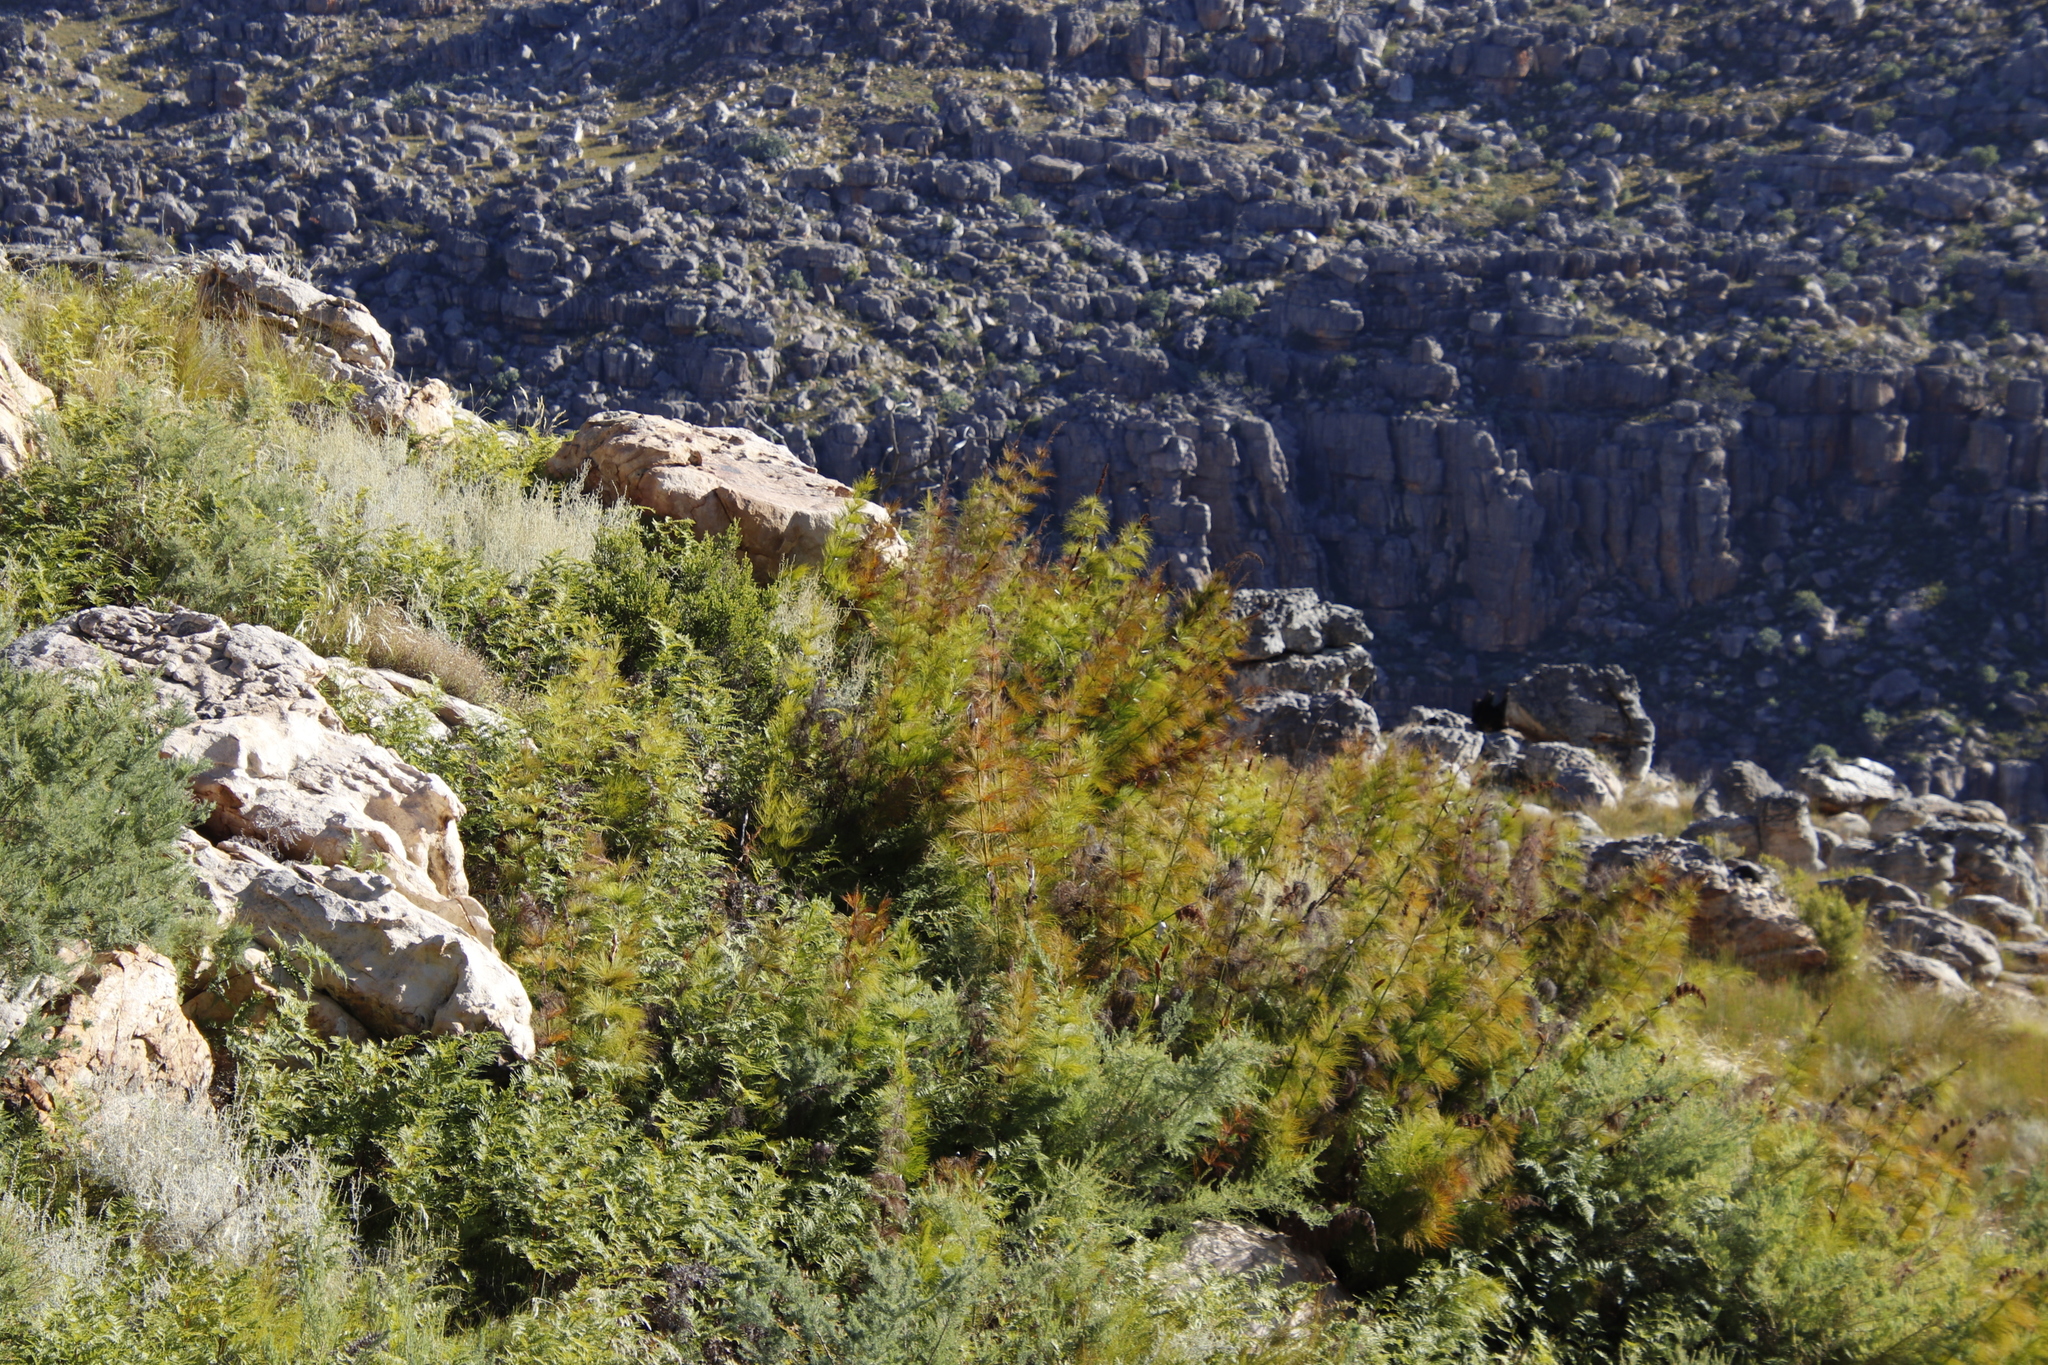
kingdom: Plantae
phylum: Tracheophyta
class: Liliopsida
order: Poales
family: Restionaceae
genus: Elegia
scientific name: Elegia capensis
